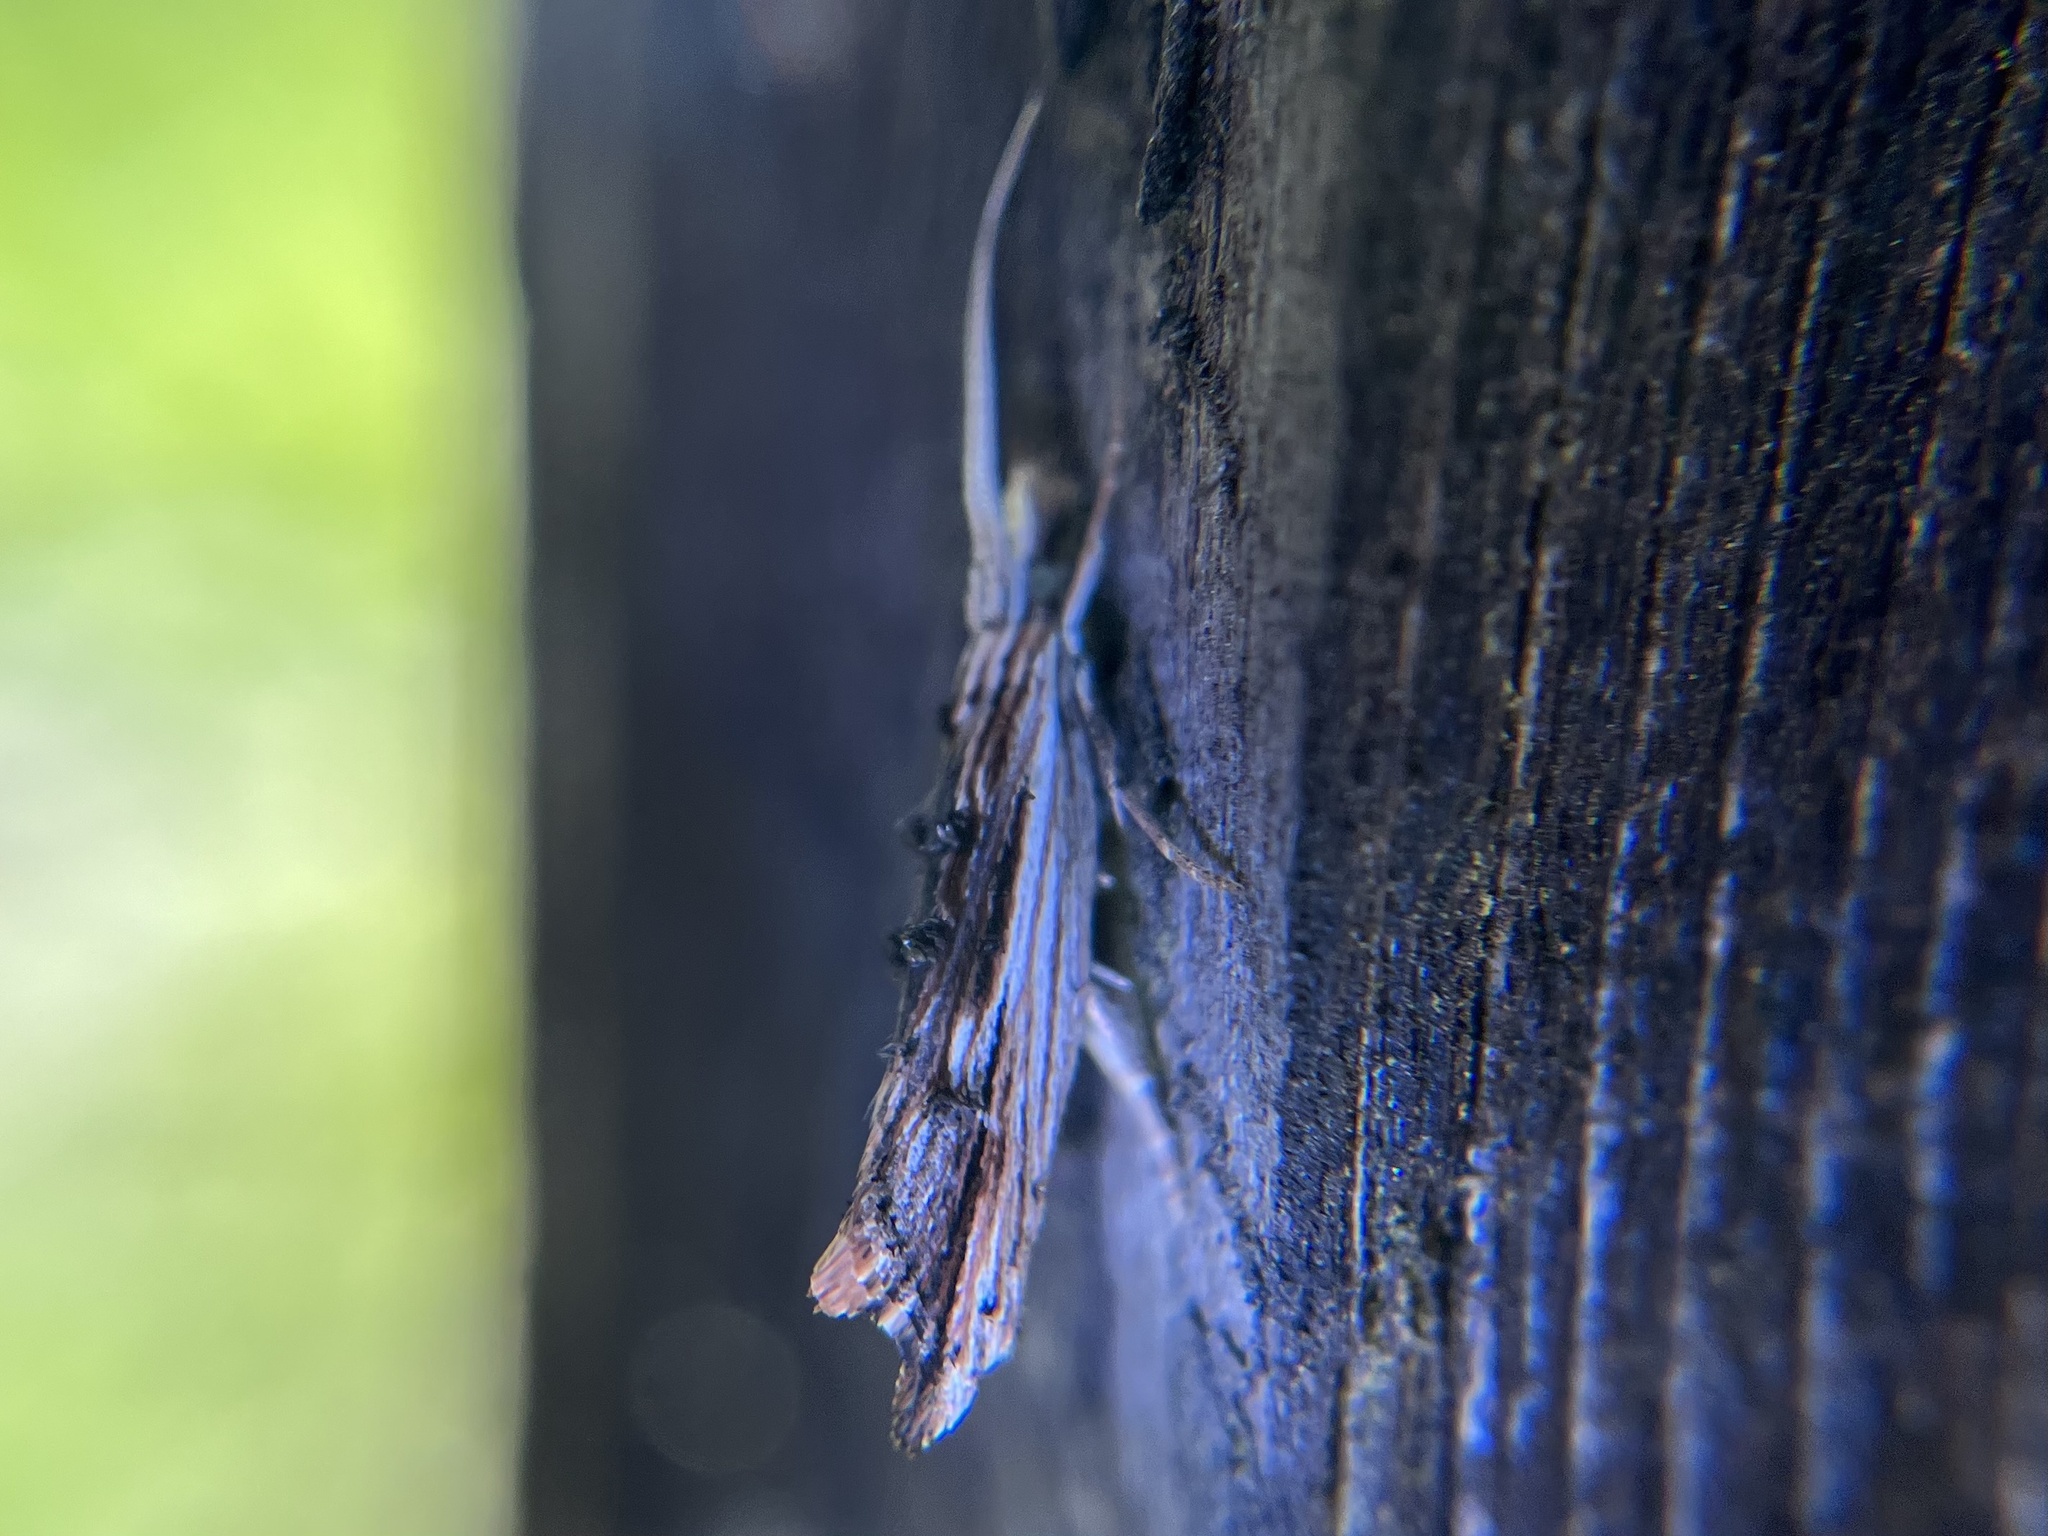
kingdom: Animalia
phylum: Arthropoda
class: Insecta
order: Lepidoptera
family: Ypsolophidae
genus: Ypsolopha
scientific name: Ypsolopha scabrella
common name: Wainscot smudge
